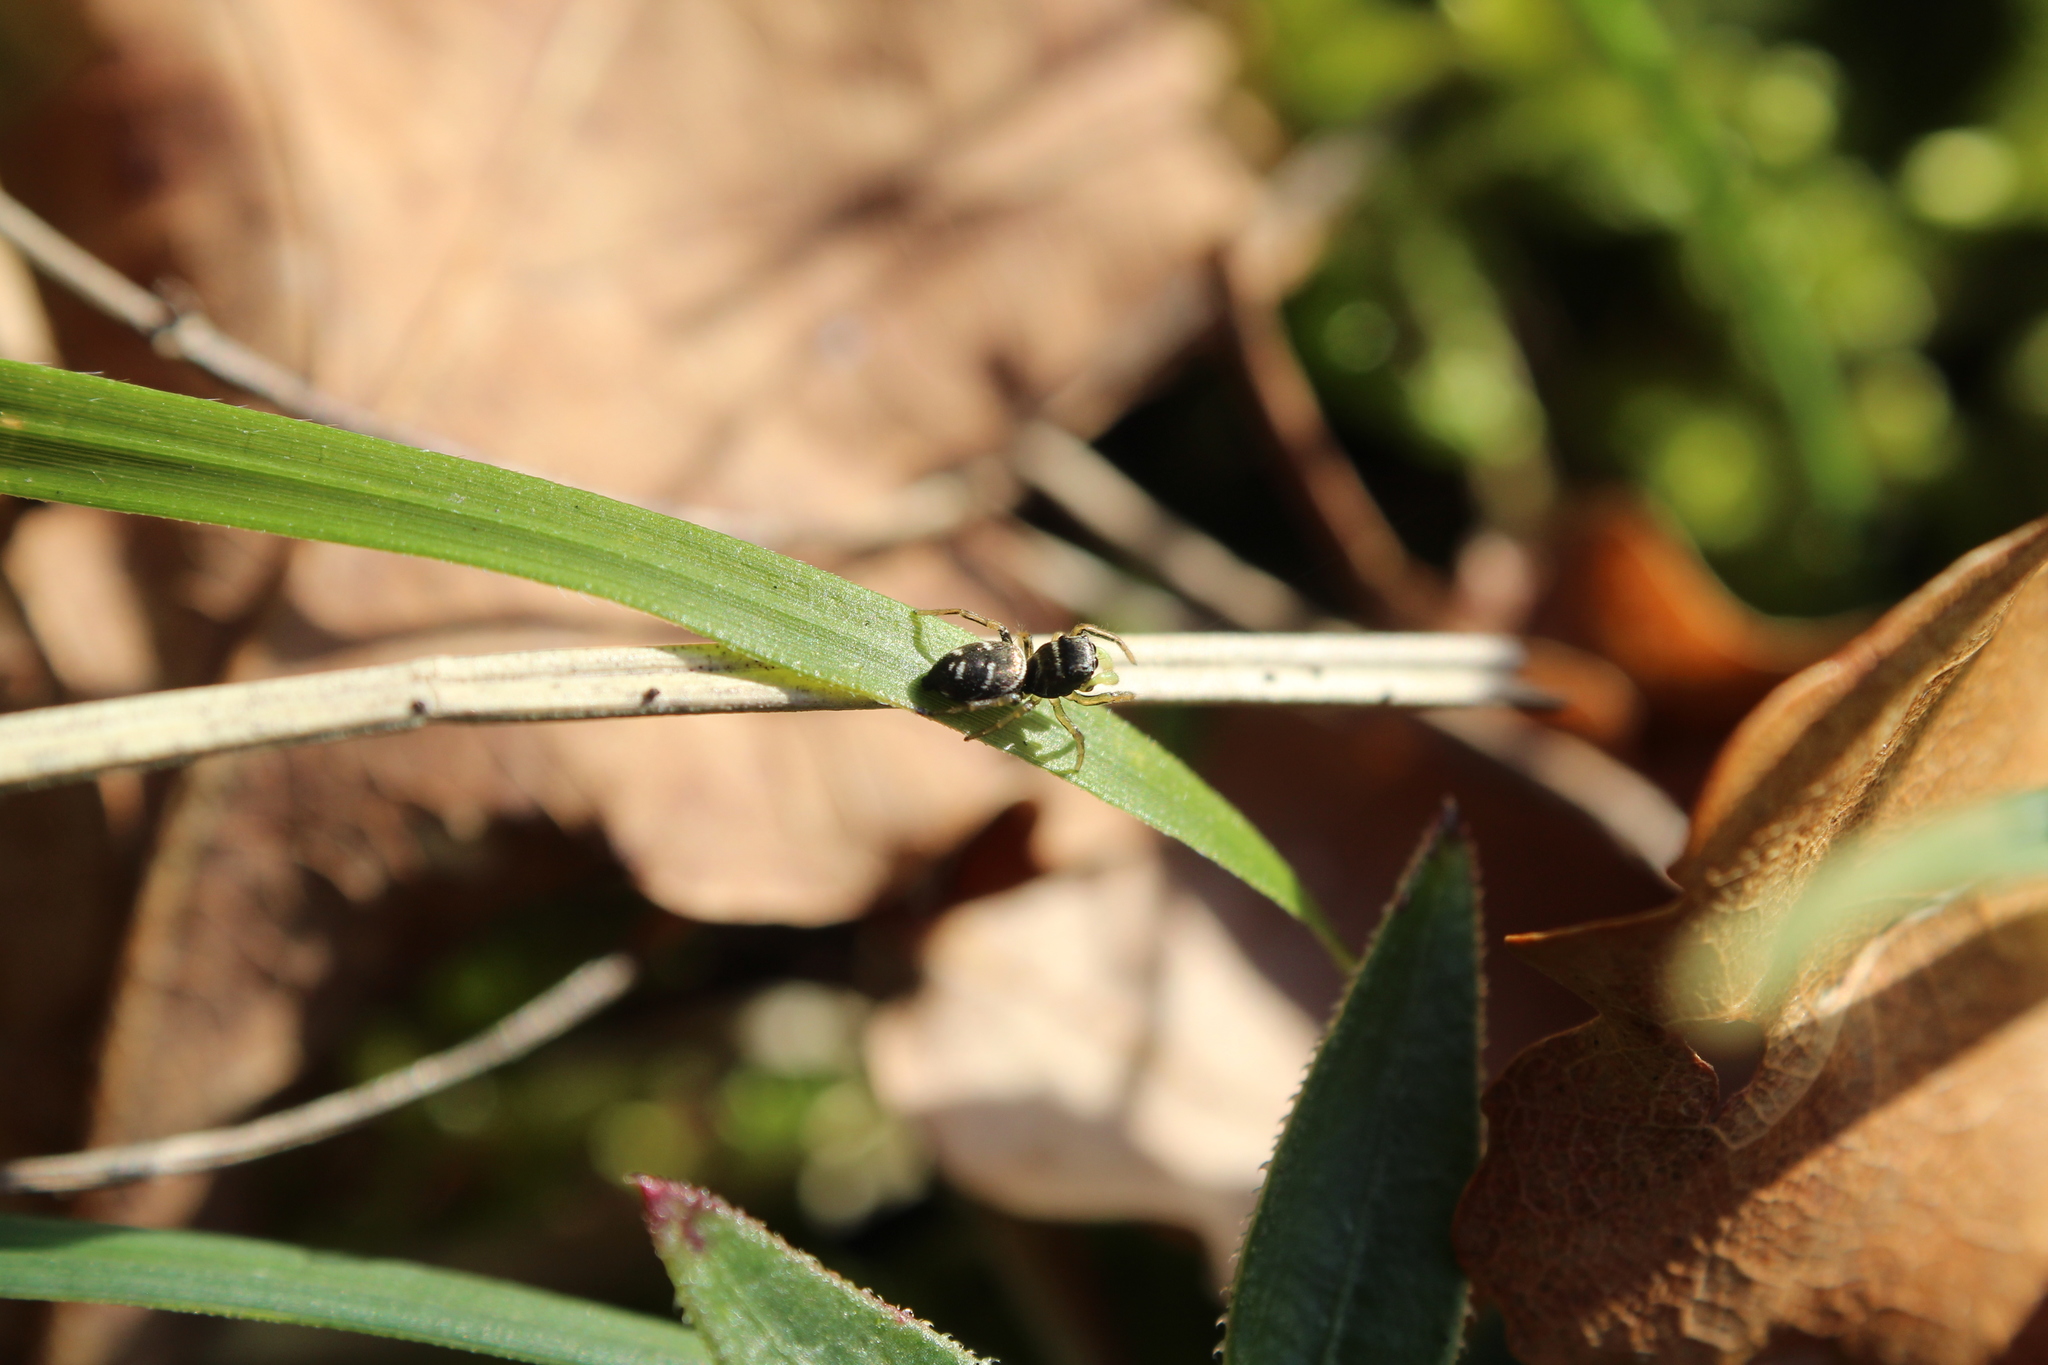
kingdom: Animalia
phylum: Arthropoda
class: Arachnida
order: Araneae
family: Salticidae
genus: Heliophanus
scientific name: Heliophanus cupreus
